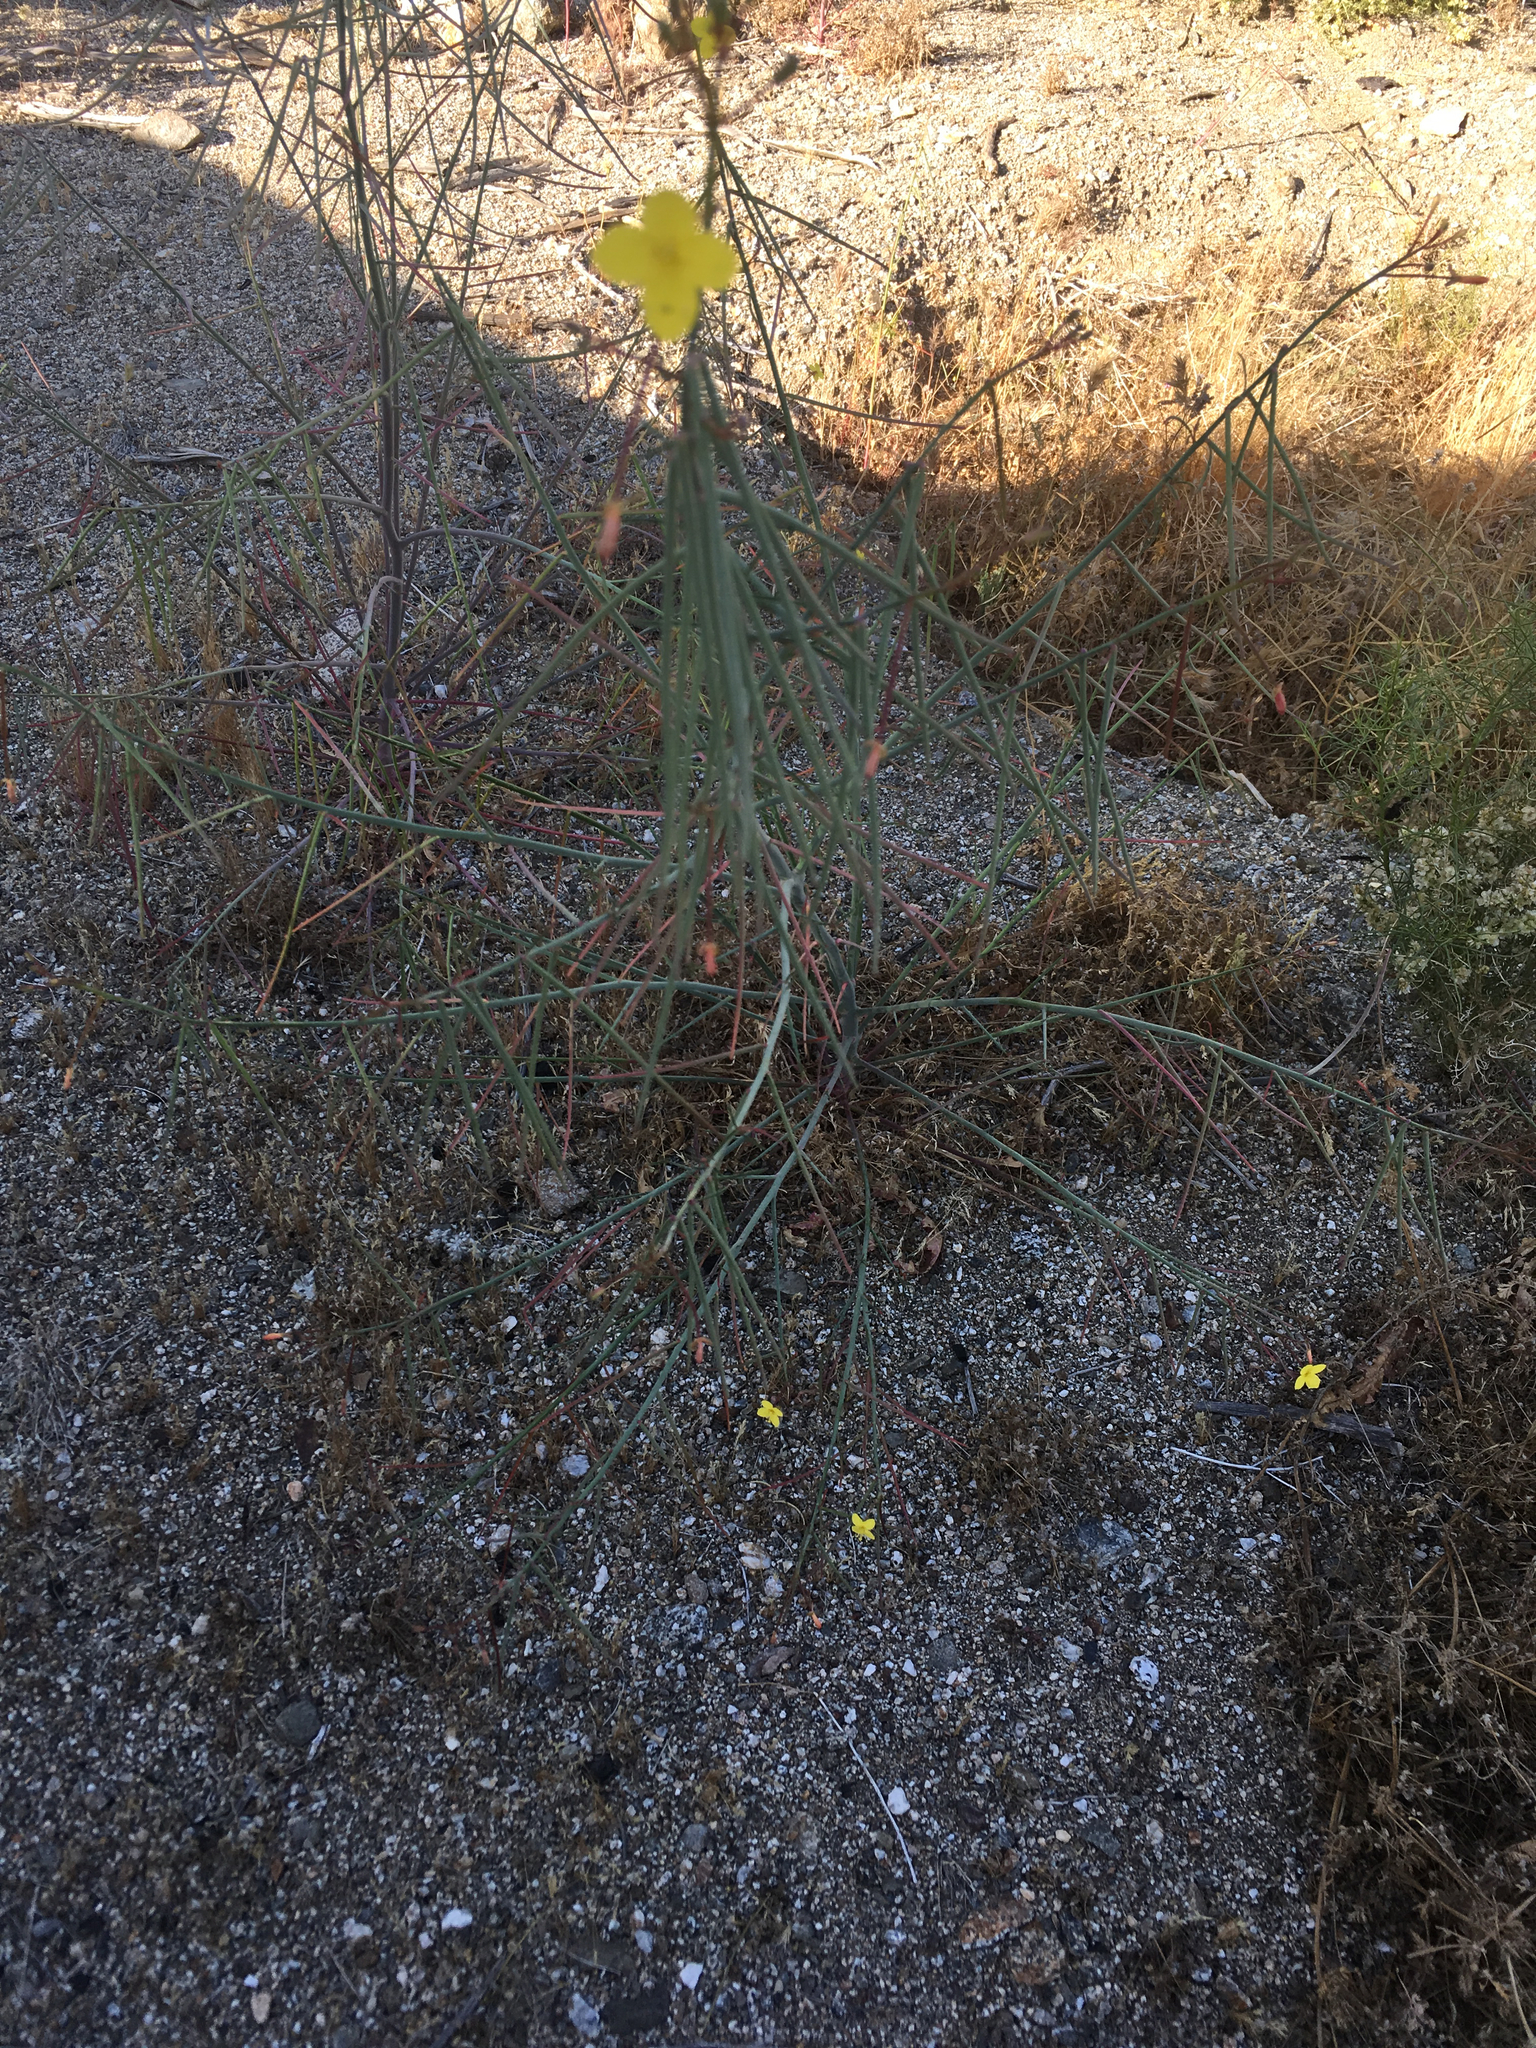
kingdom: Plantae
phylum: Tracheophyta
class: Magnoliopsida
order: Myrtales
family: Onagraceae
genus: Eulobus
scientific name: Eulobus californicus
